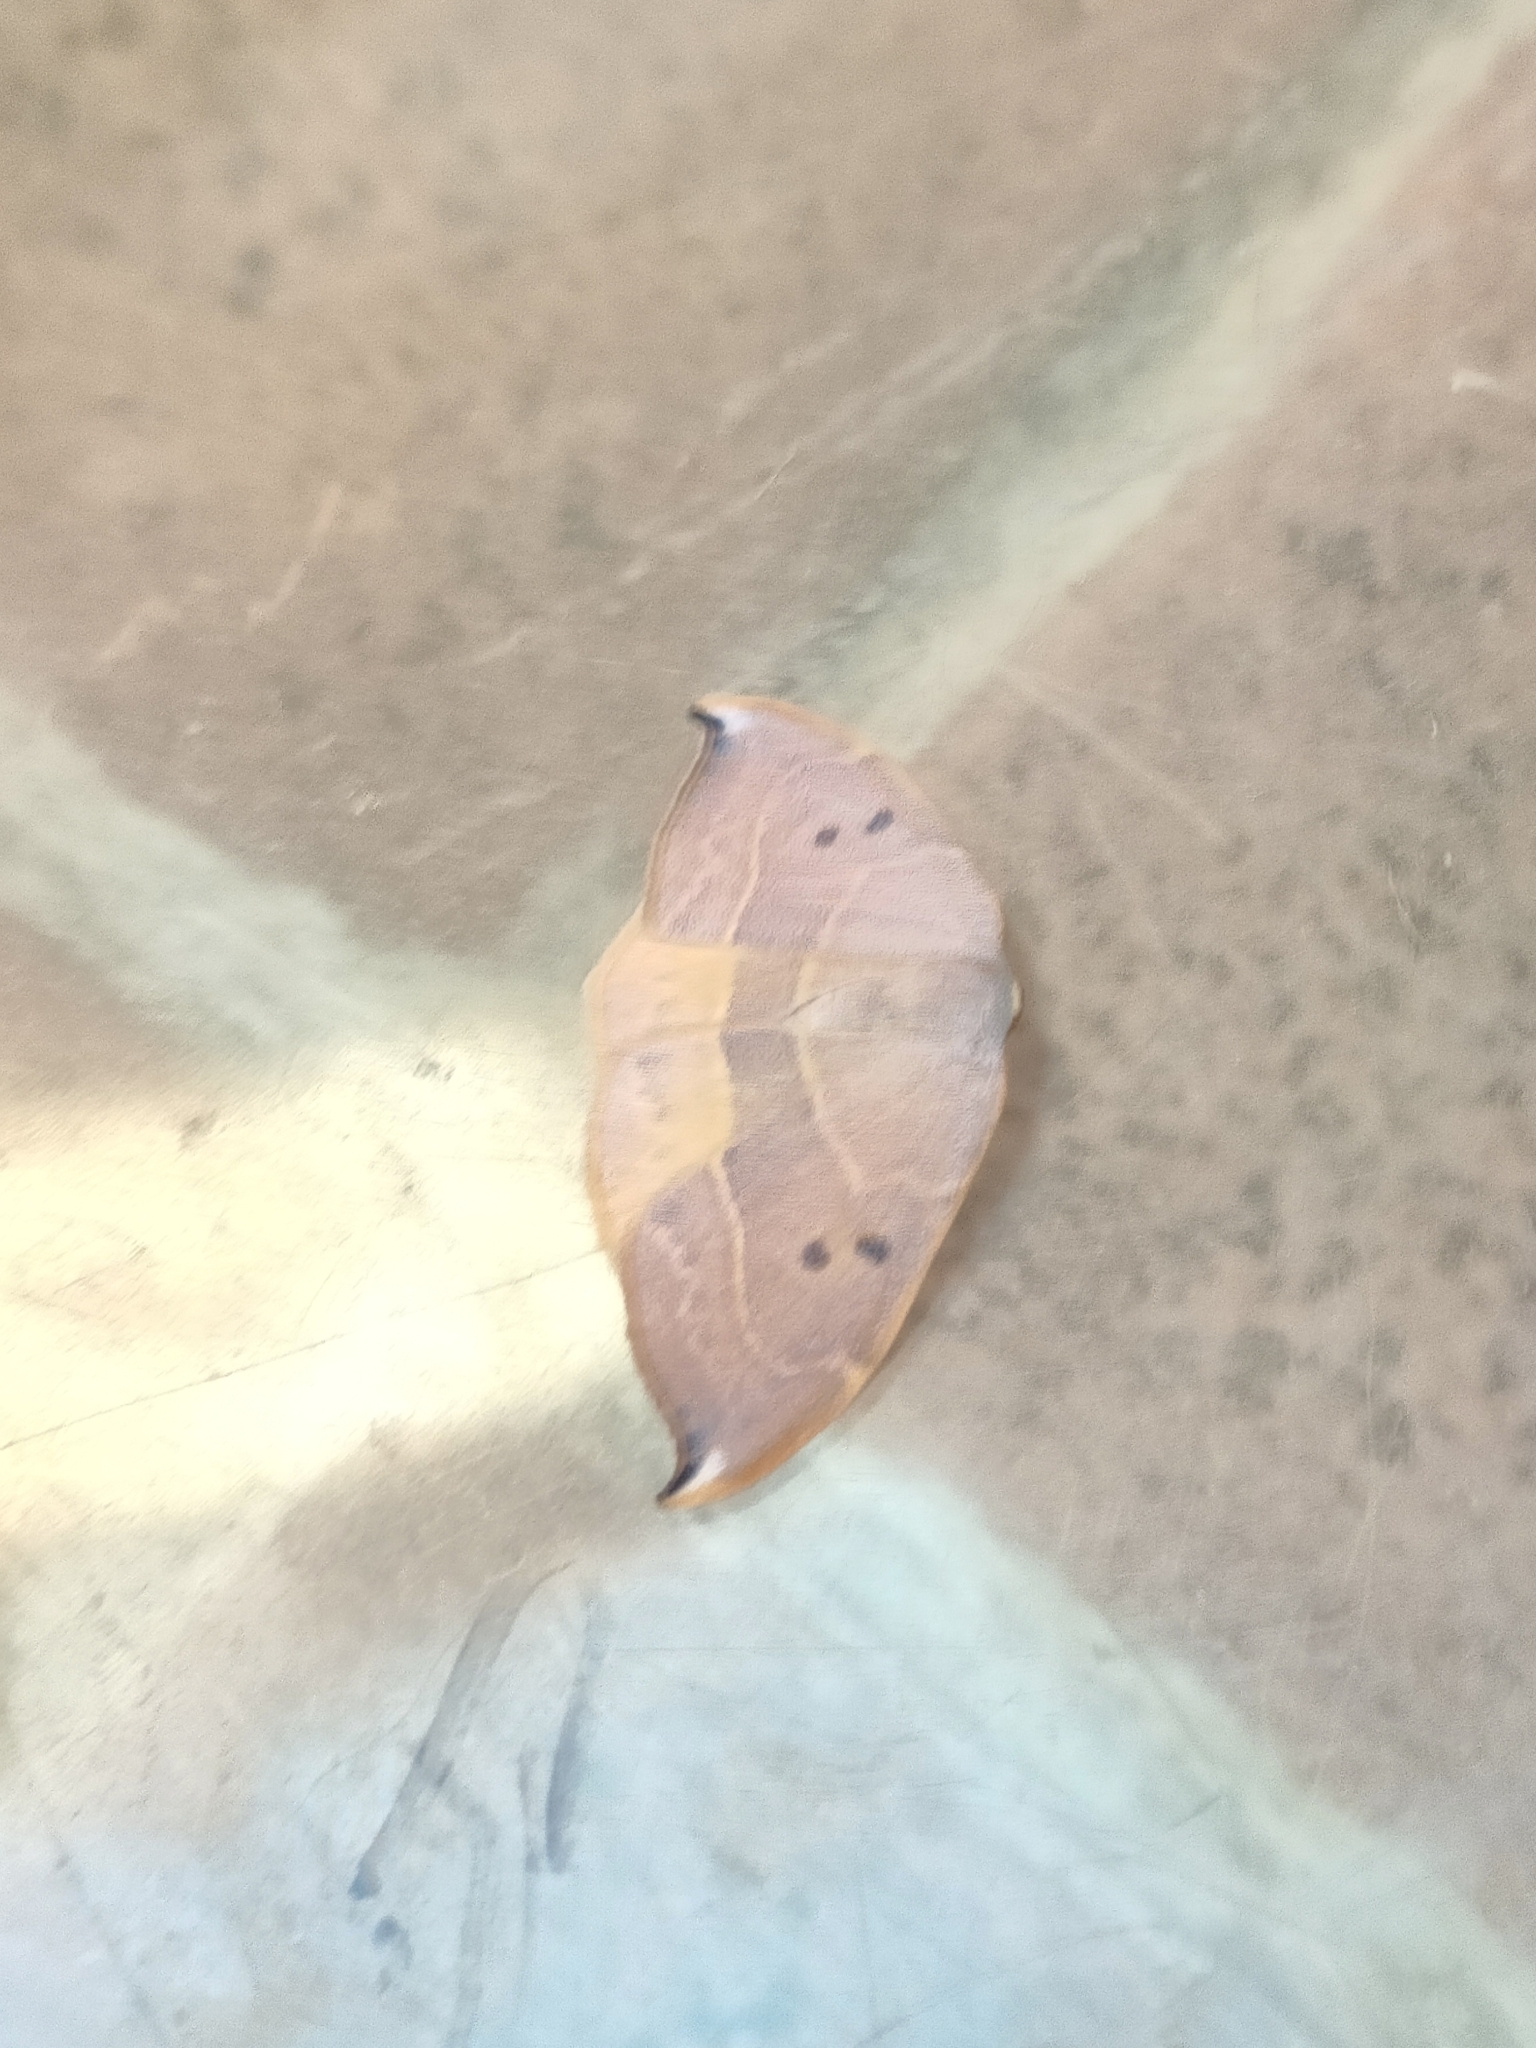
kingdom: Animalia
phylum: Arthropoda
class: Insecta
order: Lepidoptera
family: Drepanidae
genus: Watsonalla
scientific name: Watsonalla uncinula
